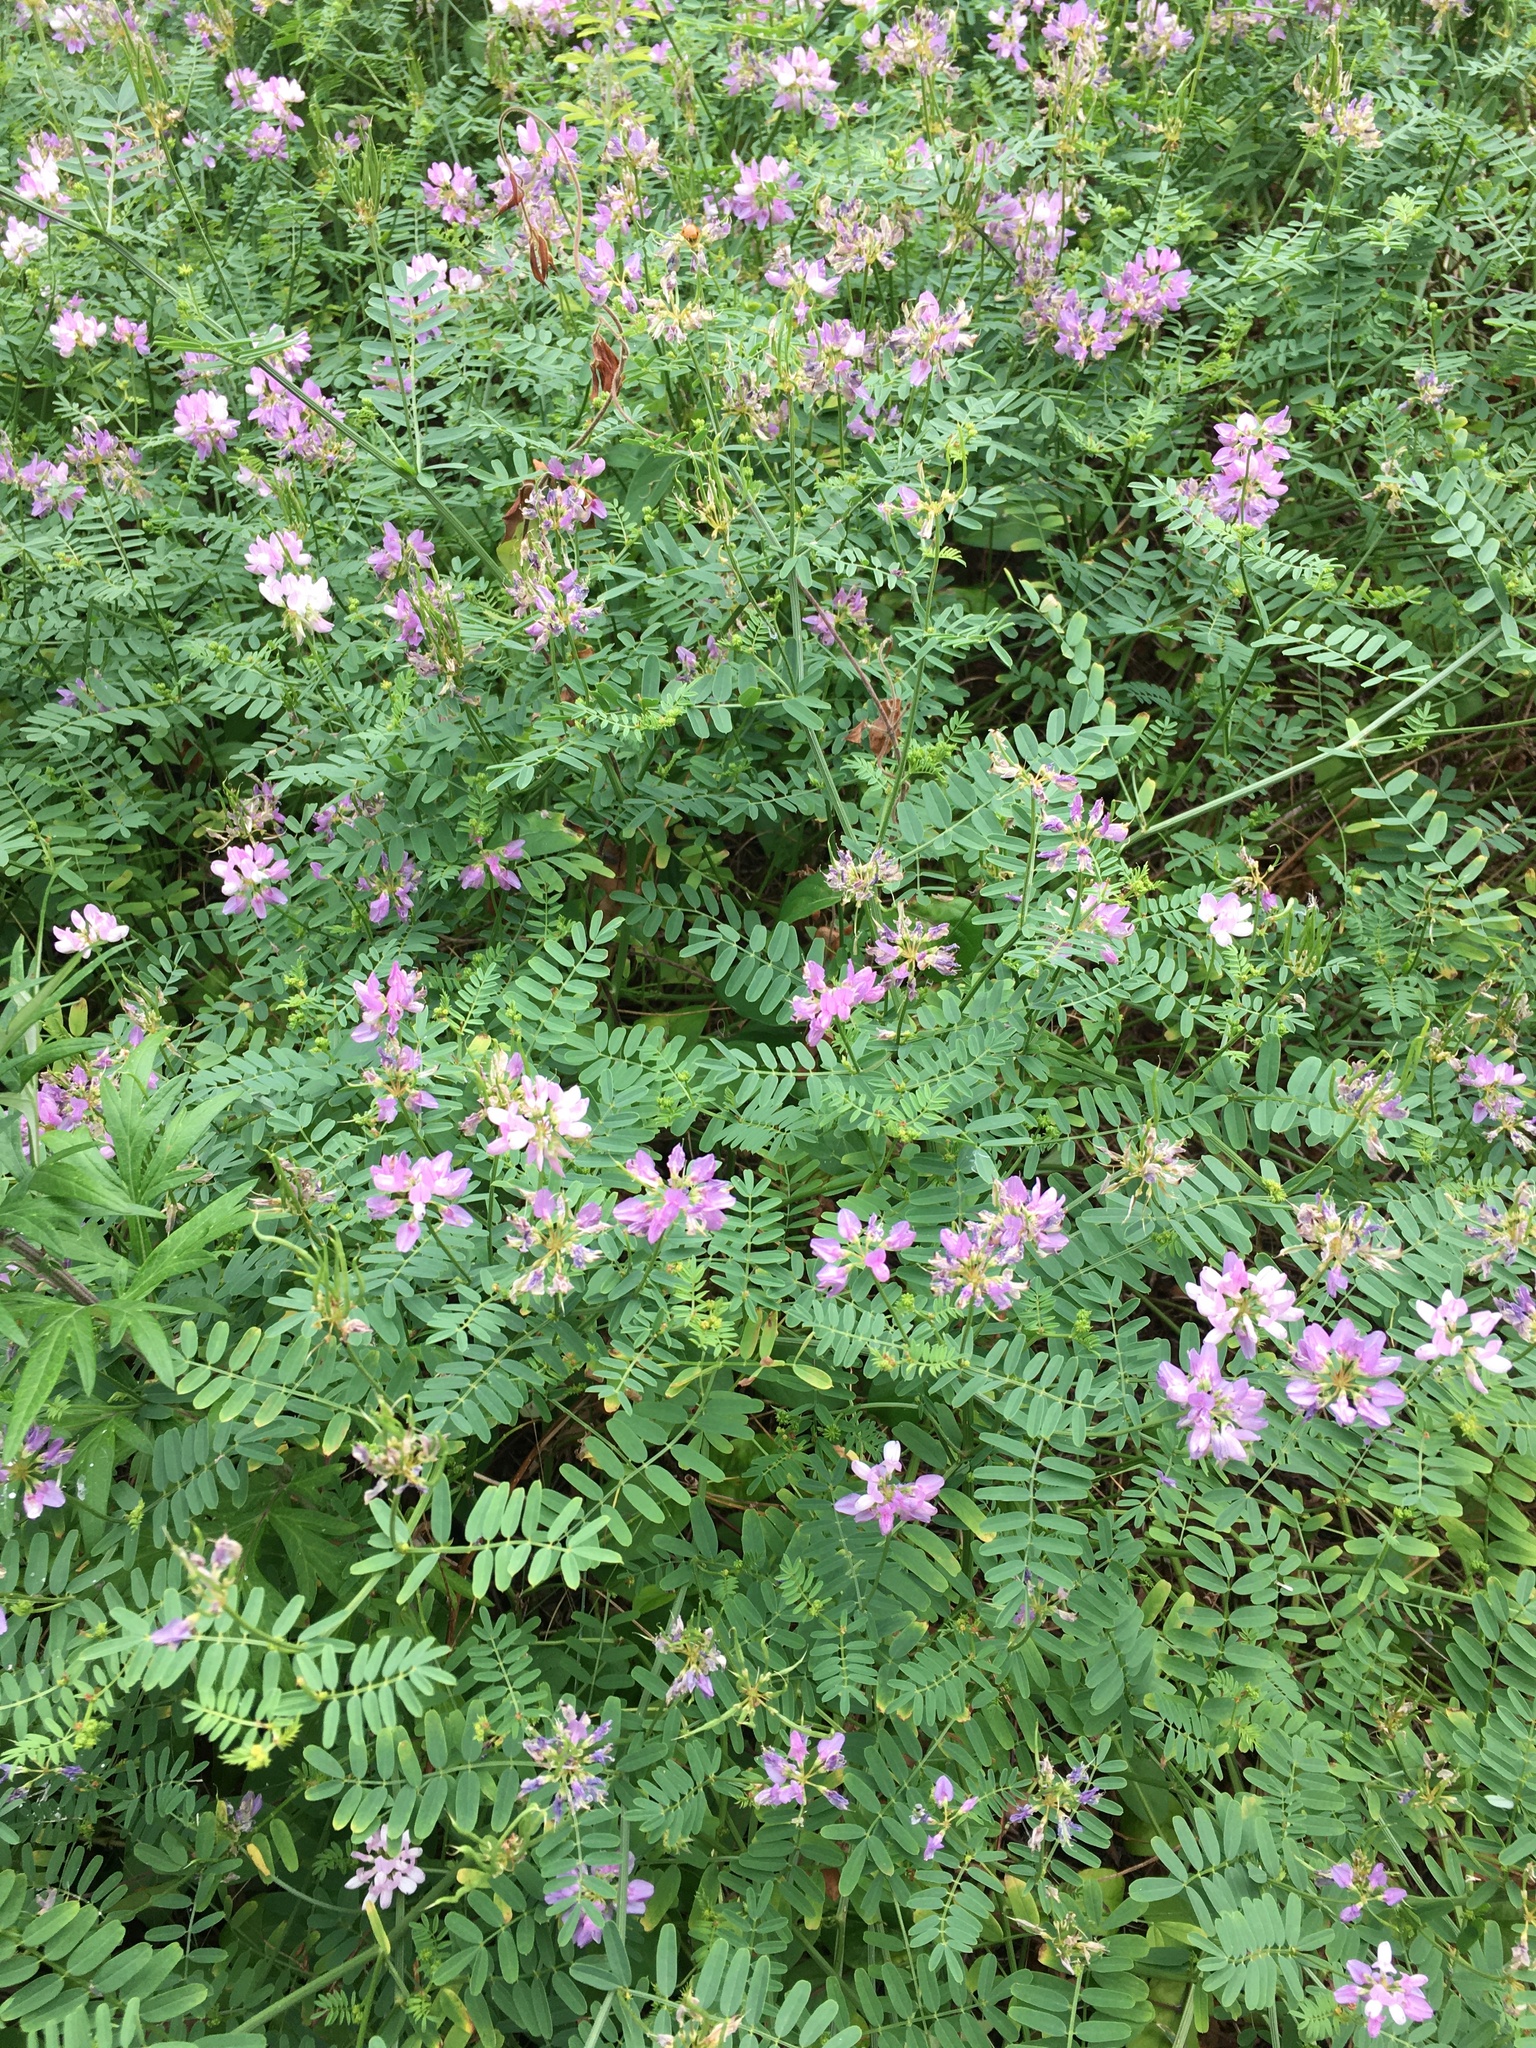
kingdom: Plantae
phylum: Tracheophyta
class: Magnoliopsida
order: Fabales
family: Fabaceae
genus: Coronilla
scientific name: Coronilla varia
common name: Crownvetch
